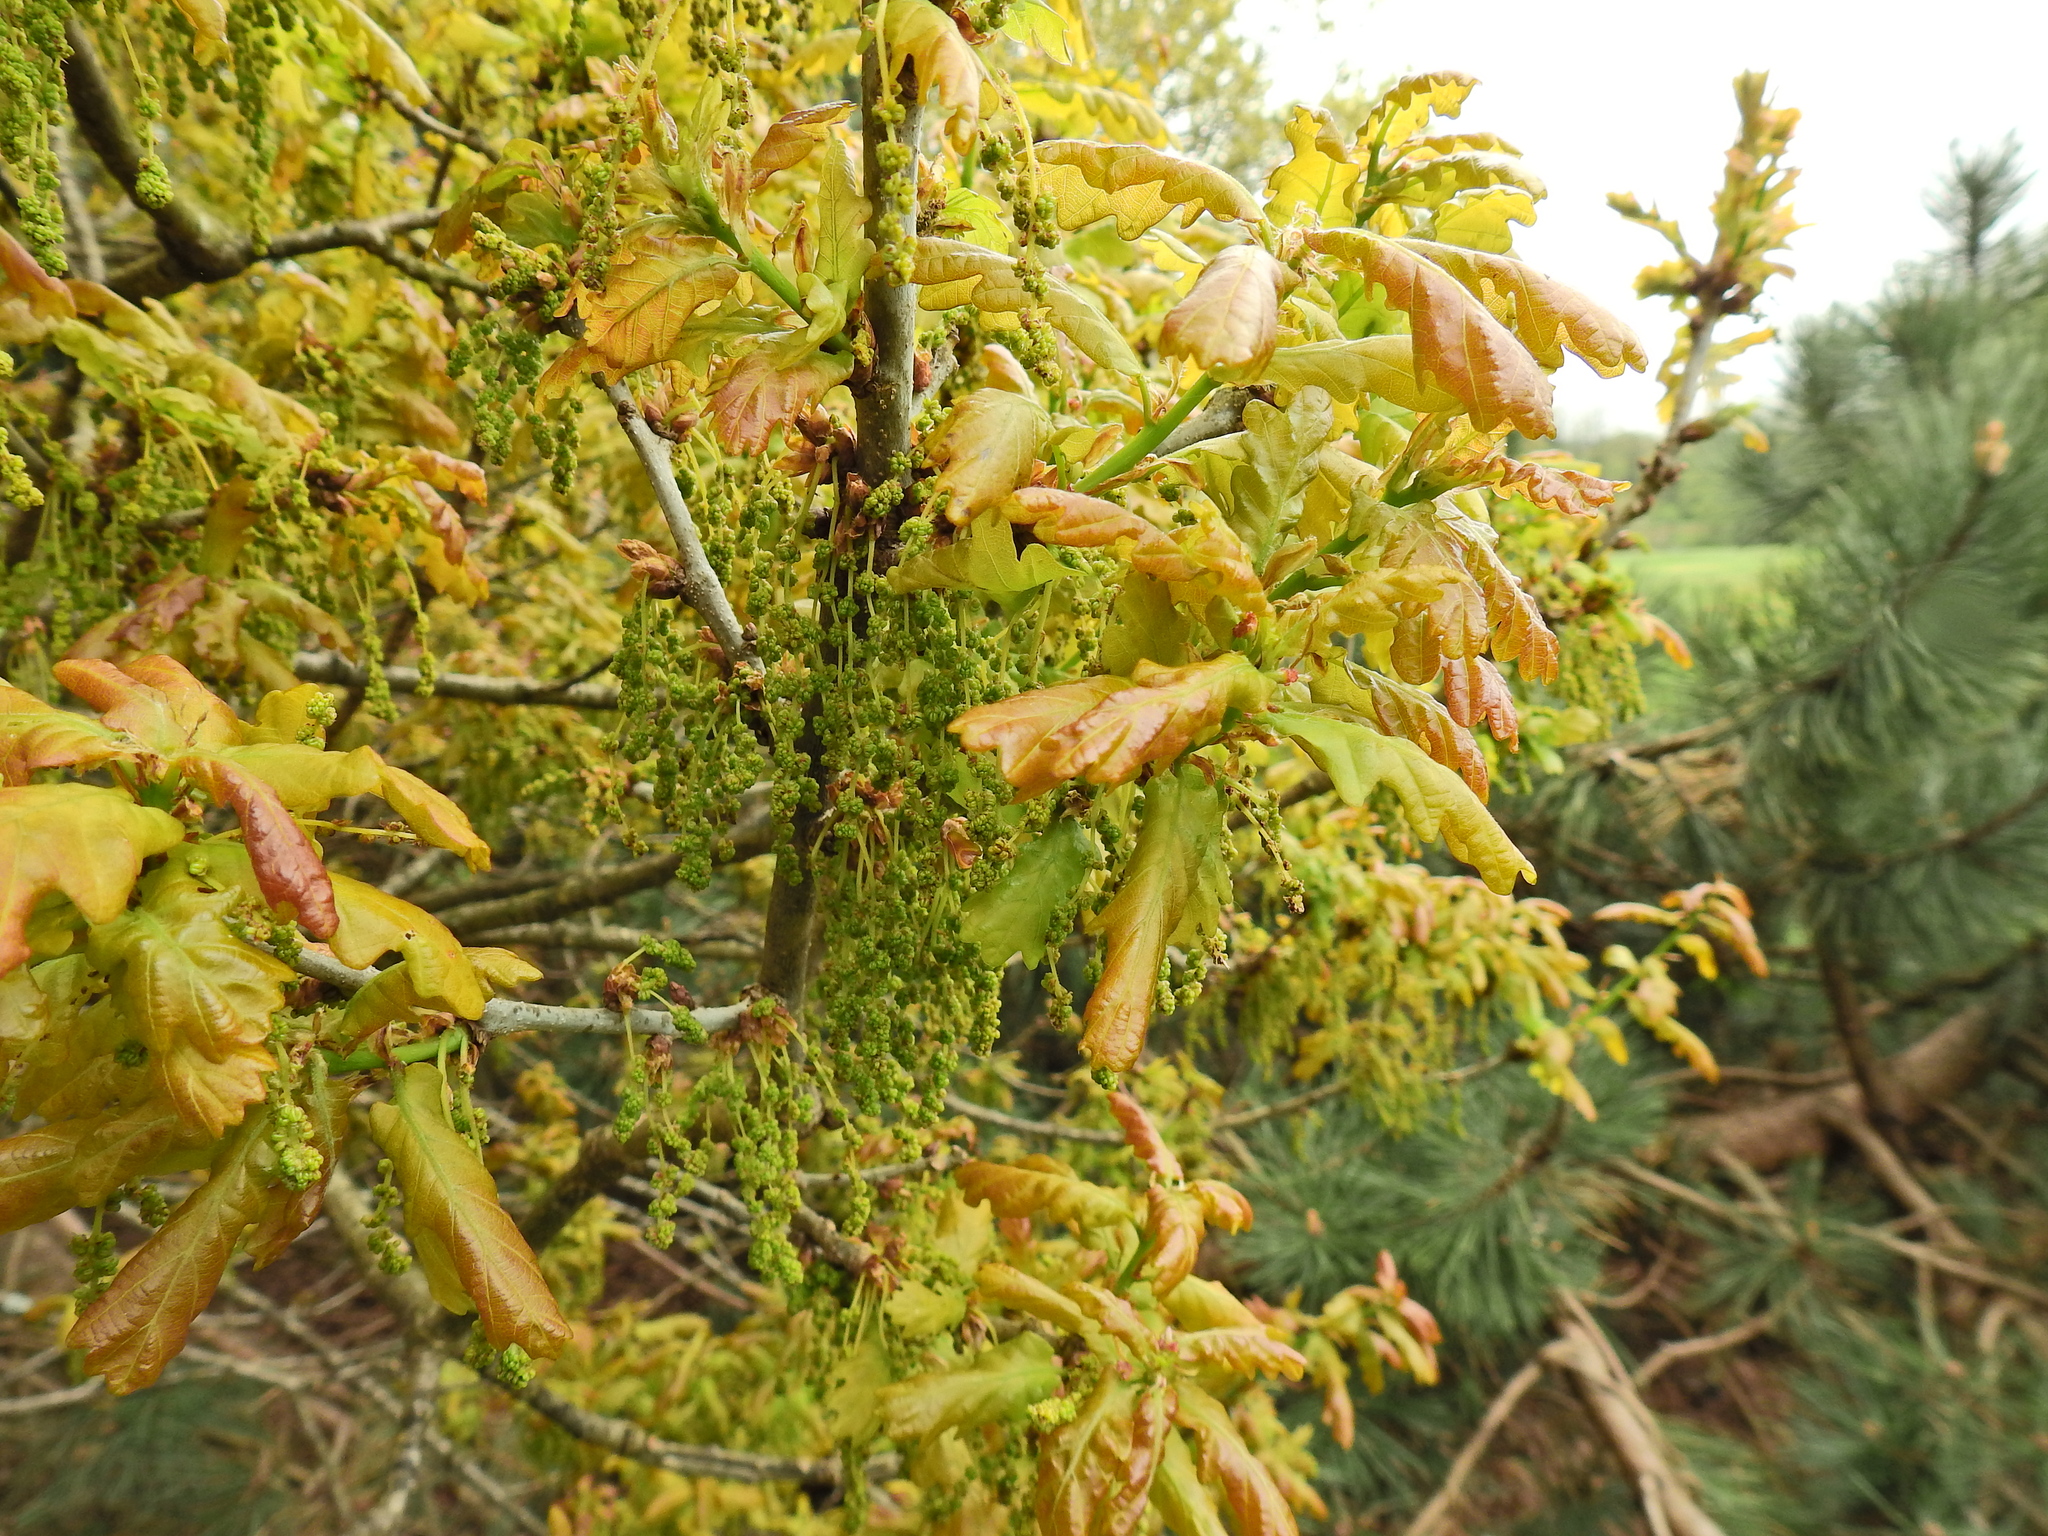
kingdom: Plantae
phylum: Tracheophyta
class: Magnoliopsida
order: Fagales
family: Fagaceae
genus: Quercus
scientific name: Quercus robur
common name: Pedunculate oak
